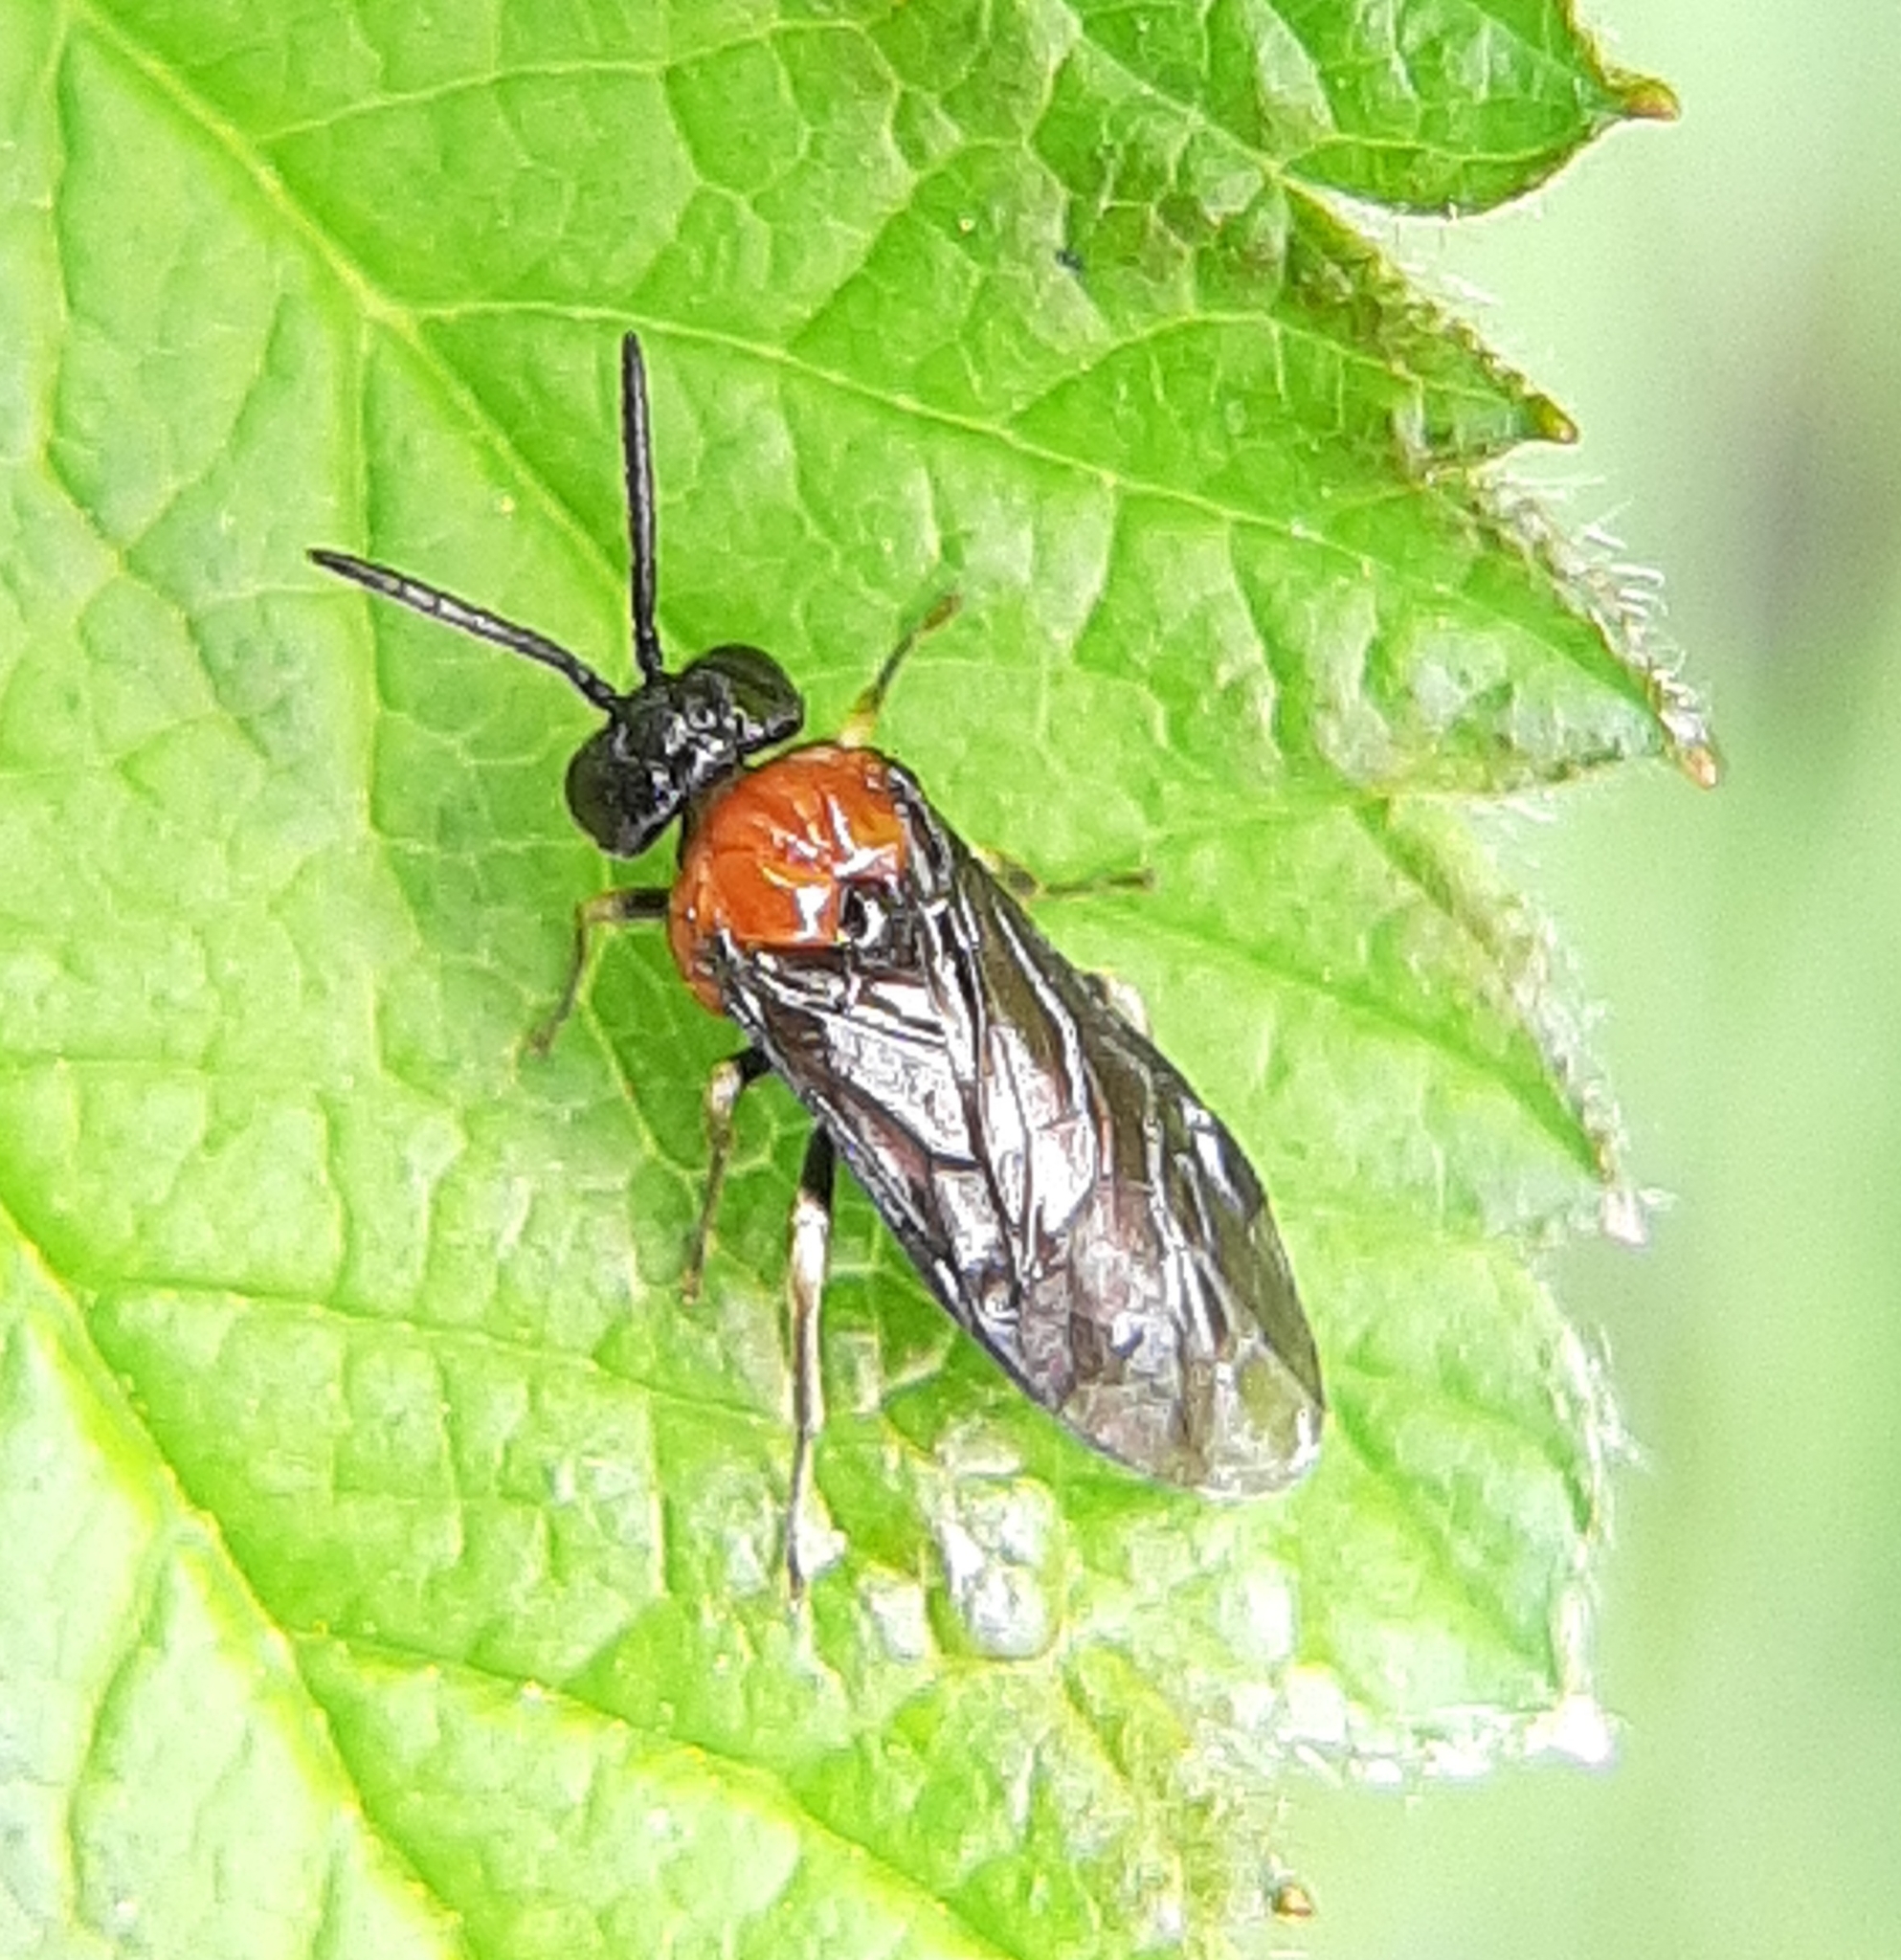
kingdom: Animalia
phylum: Arthropoda
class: Insecta
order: Hymenoptera
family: Tenthredinidae
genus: Eutomostethus
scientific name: Eutomostethus ephippium
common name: Tenthredid wasp
